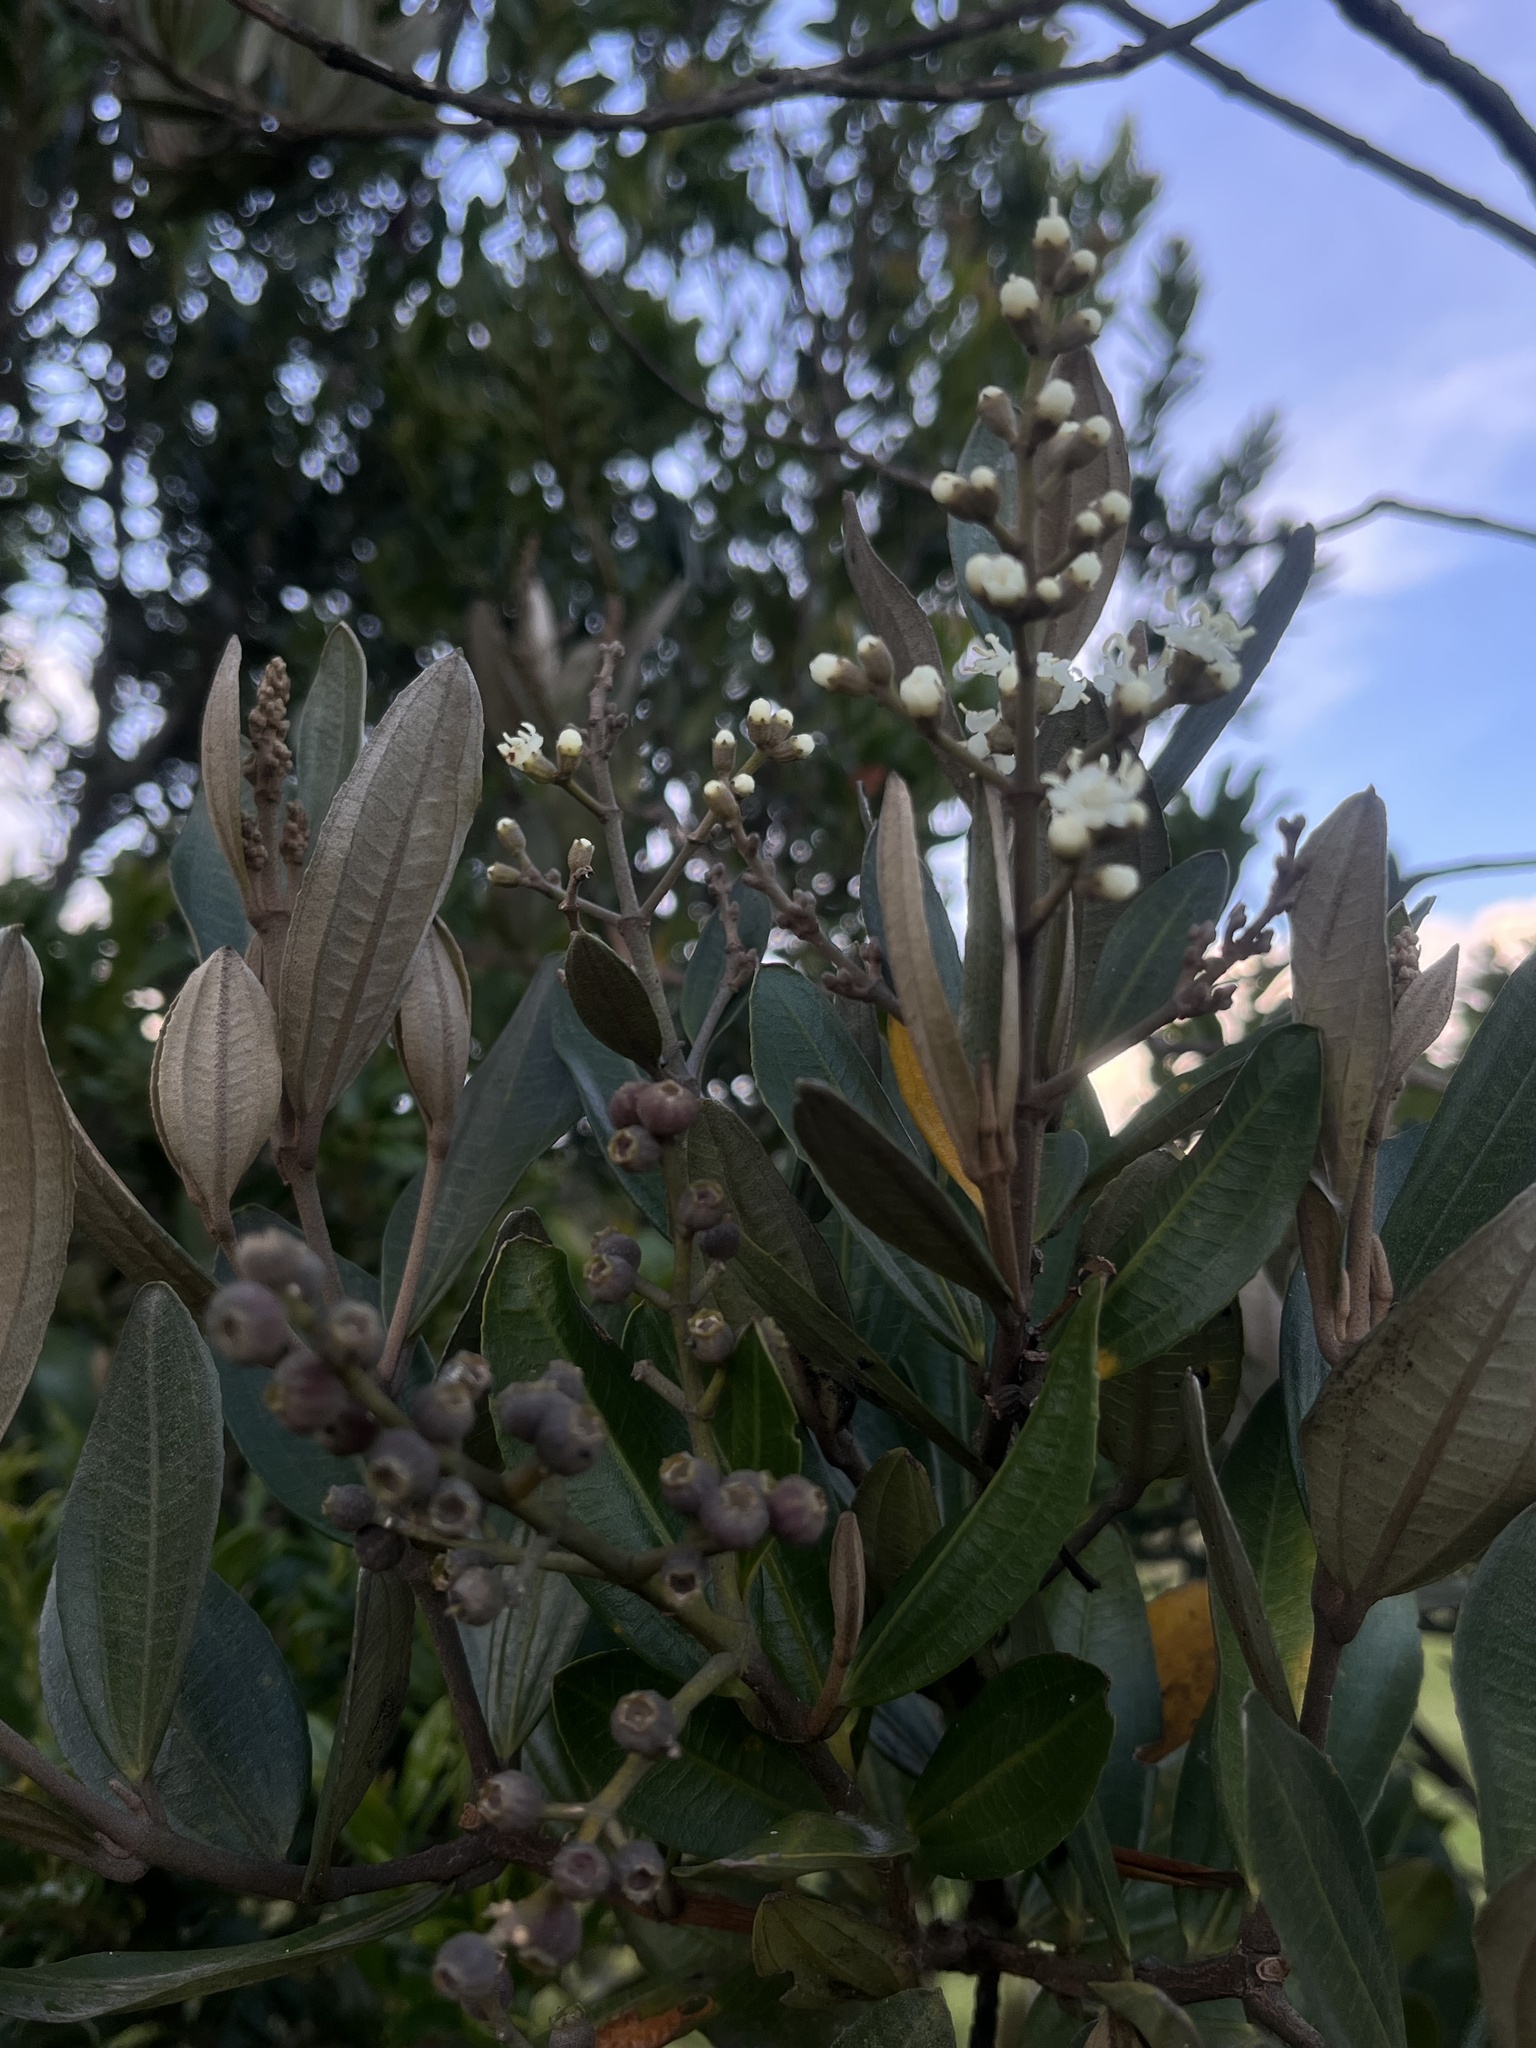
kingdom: Plantae
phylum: Tracheophyta
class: Magnoliopsida
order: Myrtales
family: Melastomataceae
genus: Miconia
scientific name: Miconia squamulosa
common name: Squamulose maya
